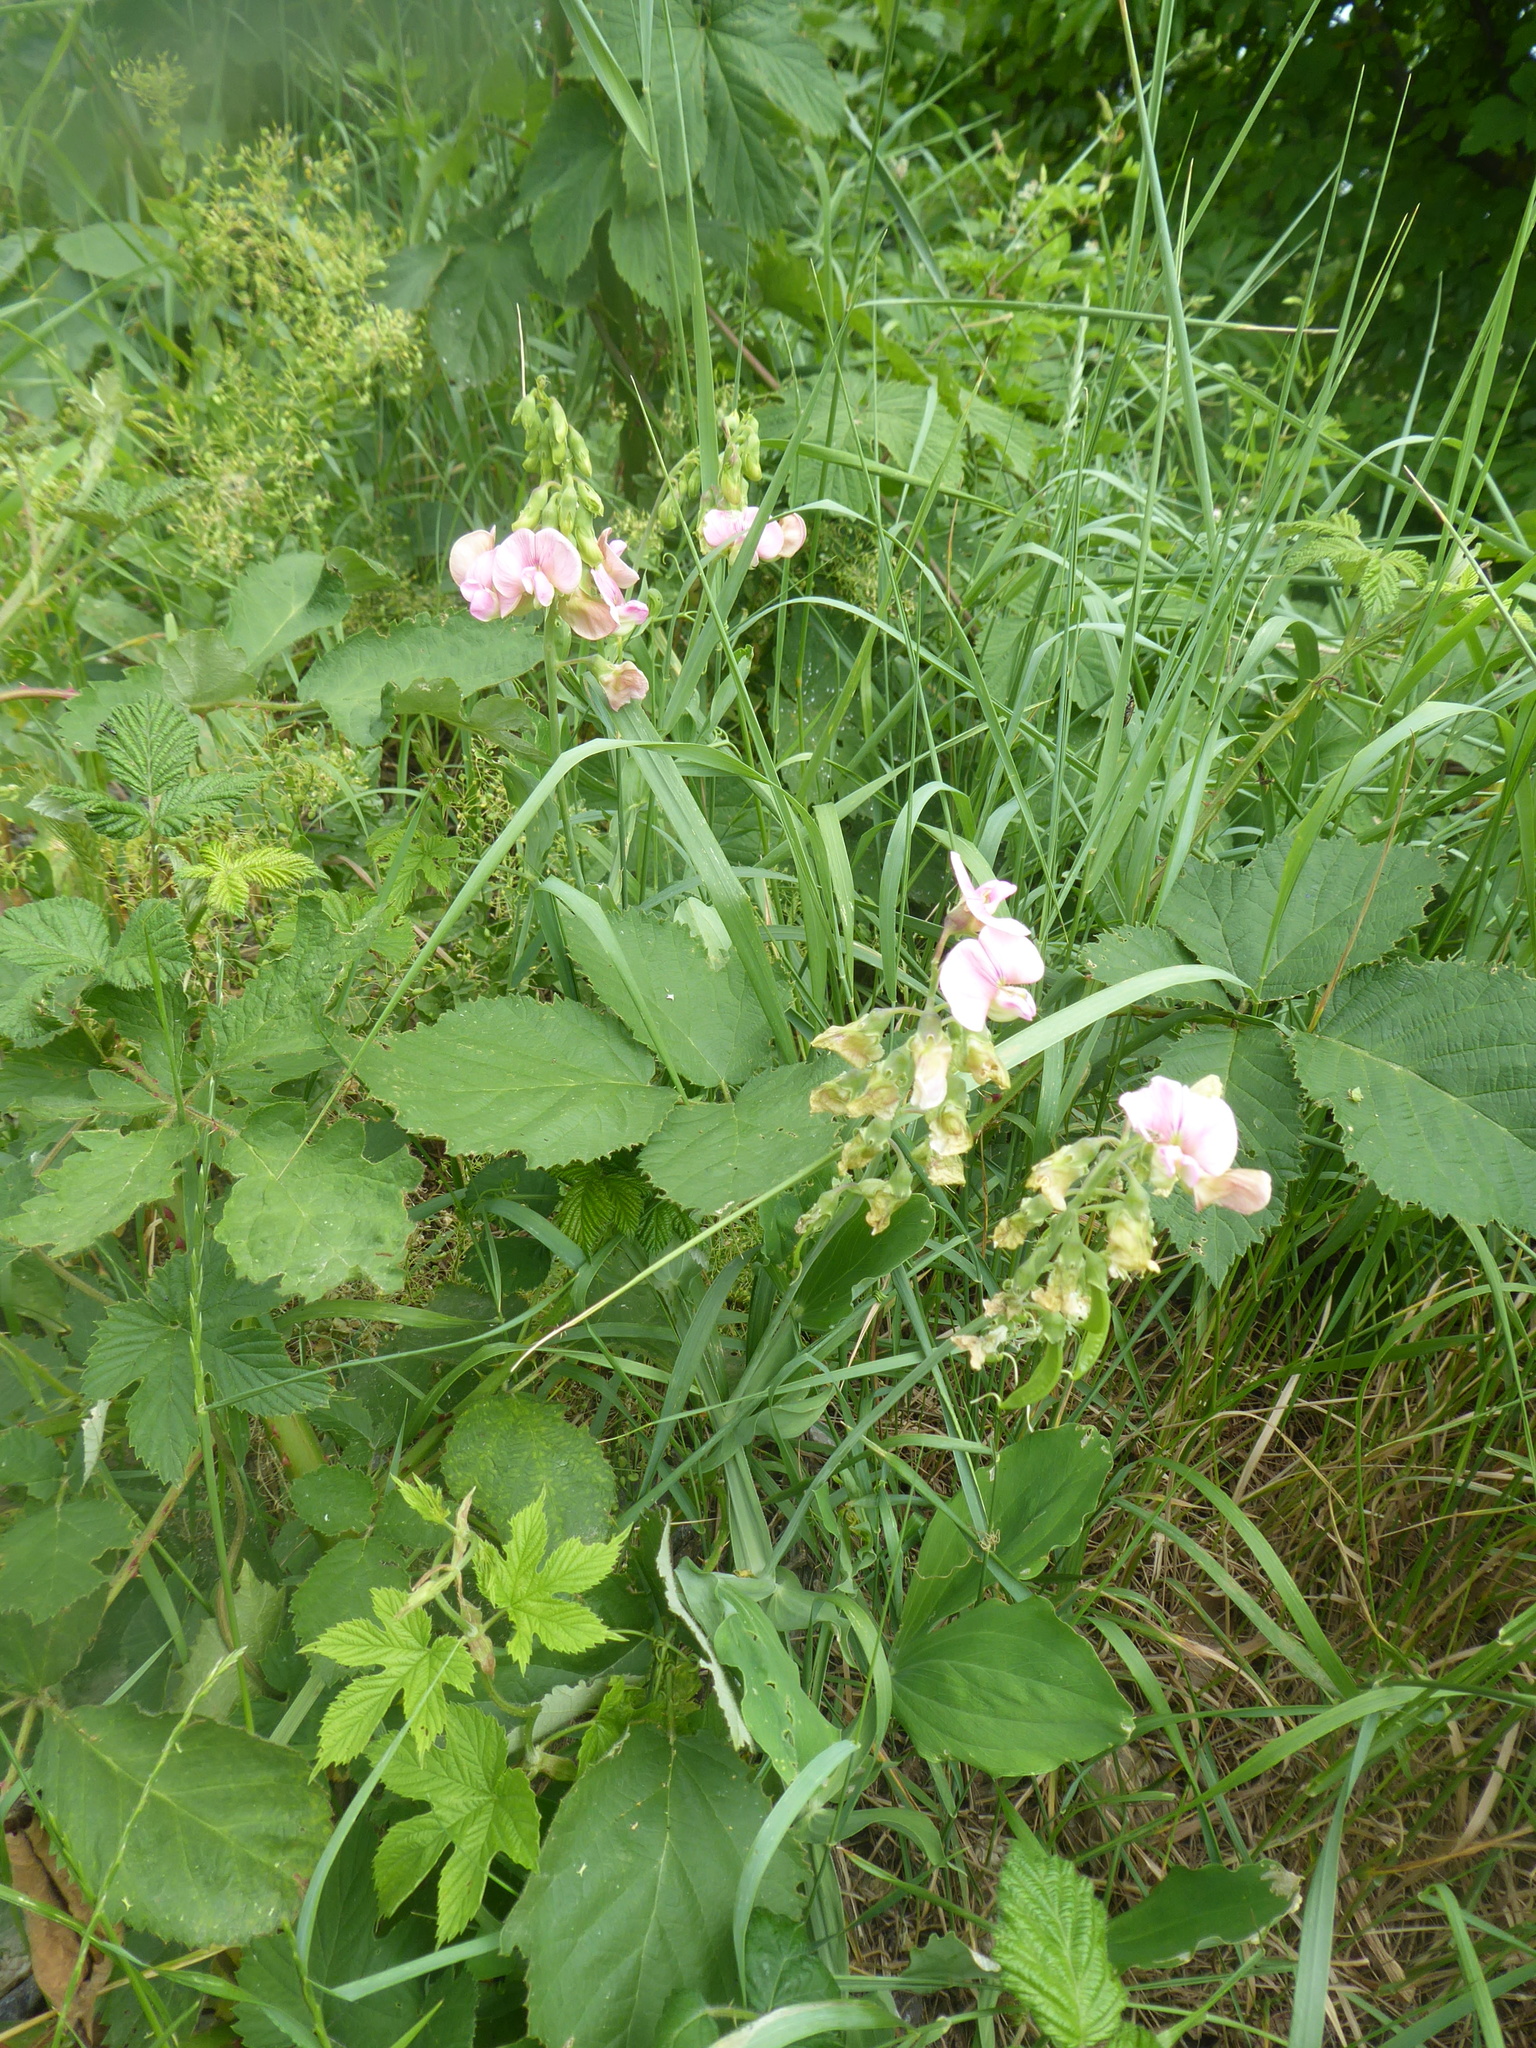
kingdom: Plantae
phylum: Tracheophyta
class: Magnoliopsida
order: Fabales
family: Fabaceae
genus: Lathyrus
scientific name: Lathyrus latifolius
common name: Perennial pea
